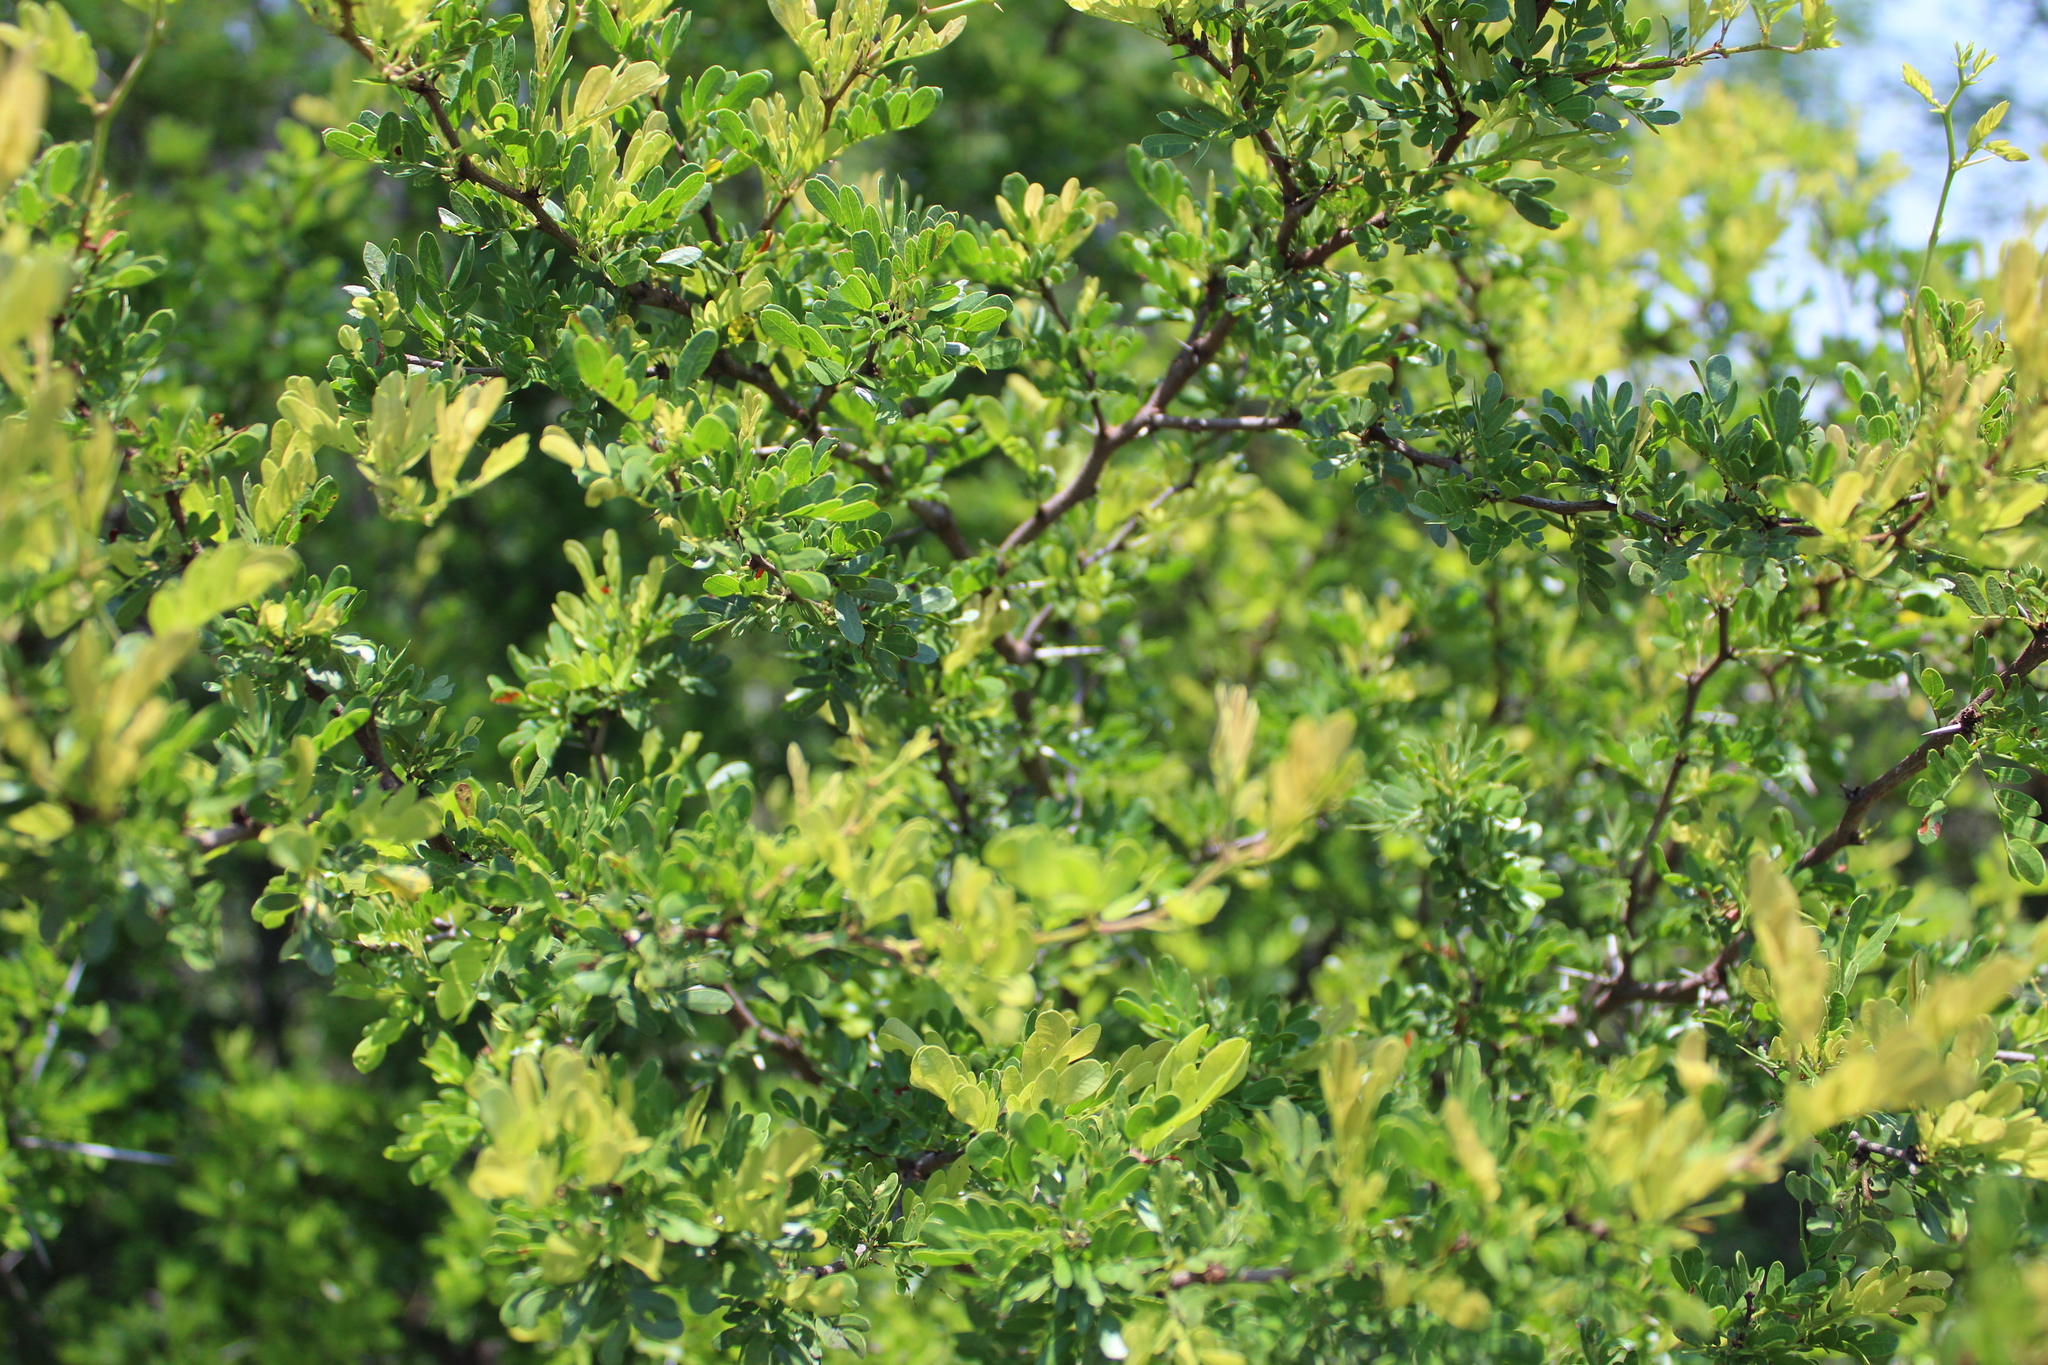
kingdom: Plantae
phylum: Tracheophyta
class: Magnoliopsida
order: Fabales
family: Fabaceae
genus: Vachellia
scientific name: Vachellia rigidula
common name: Blackbrush
